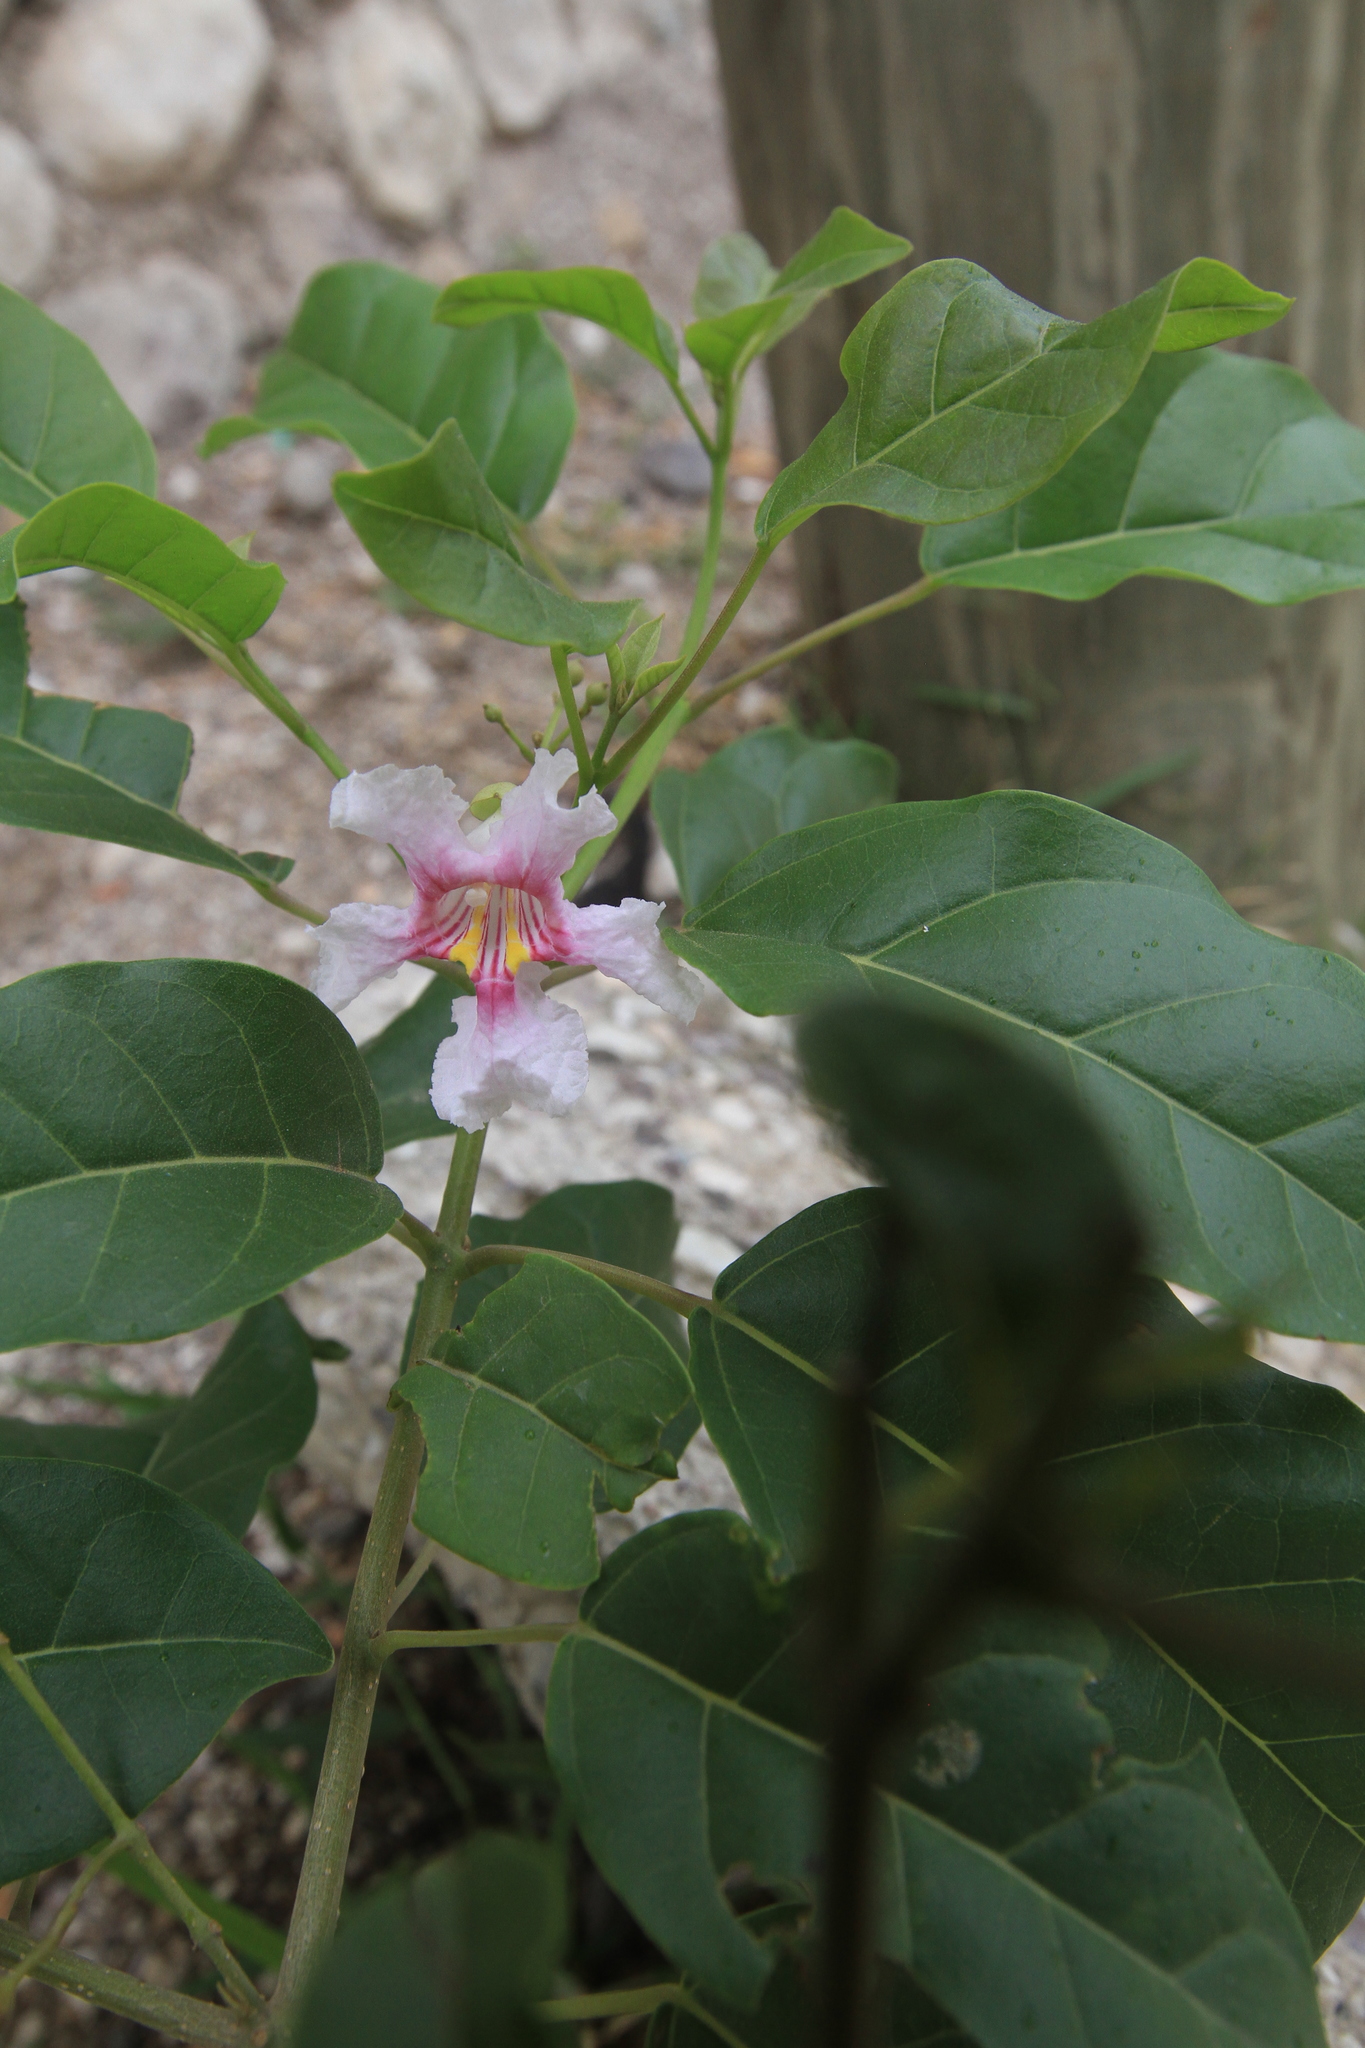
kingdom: Plantae
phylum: Tracheophyta
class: Magnoliopsida
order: Lamiales
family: Bignoniaceae
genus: Catalpa
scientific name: Catalpa longissima
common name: Haitian catalpa
